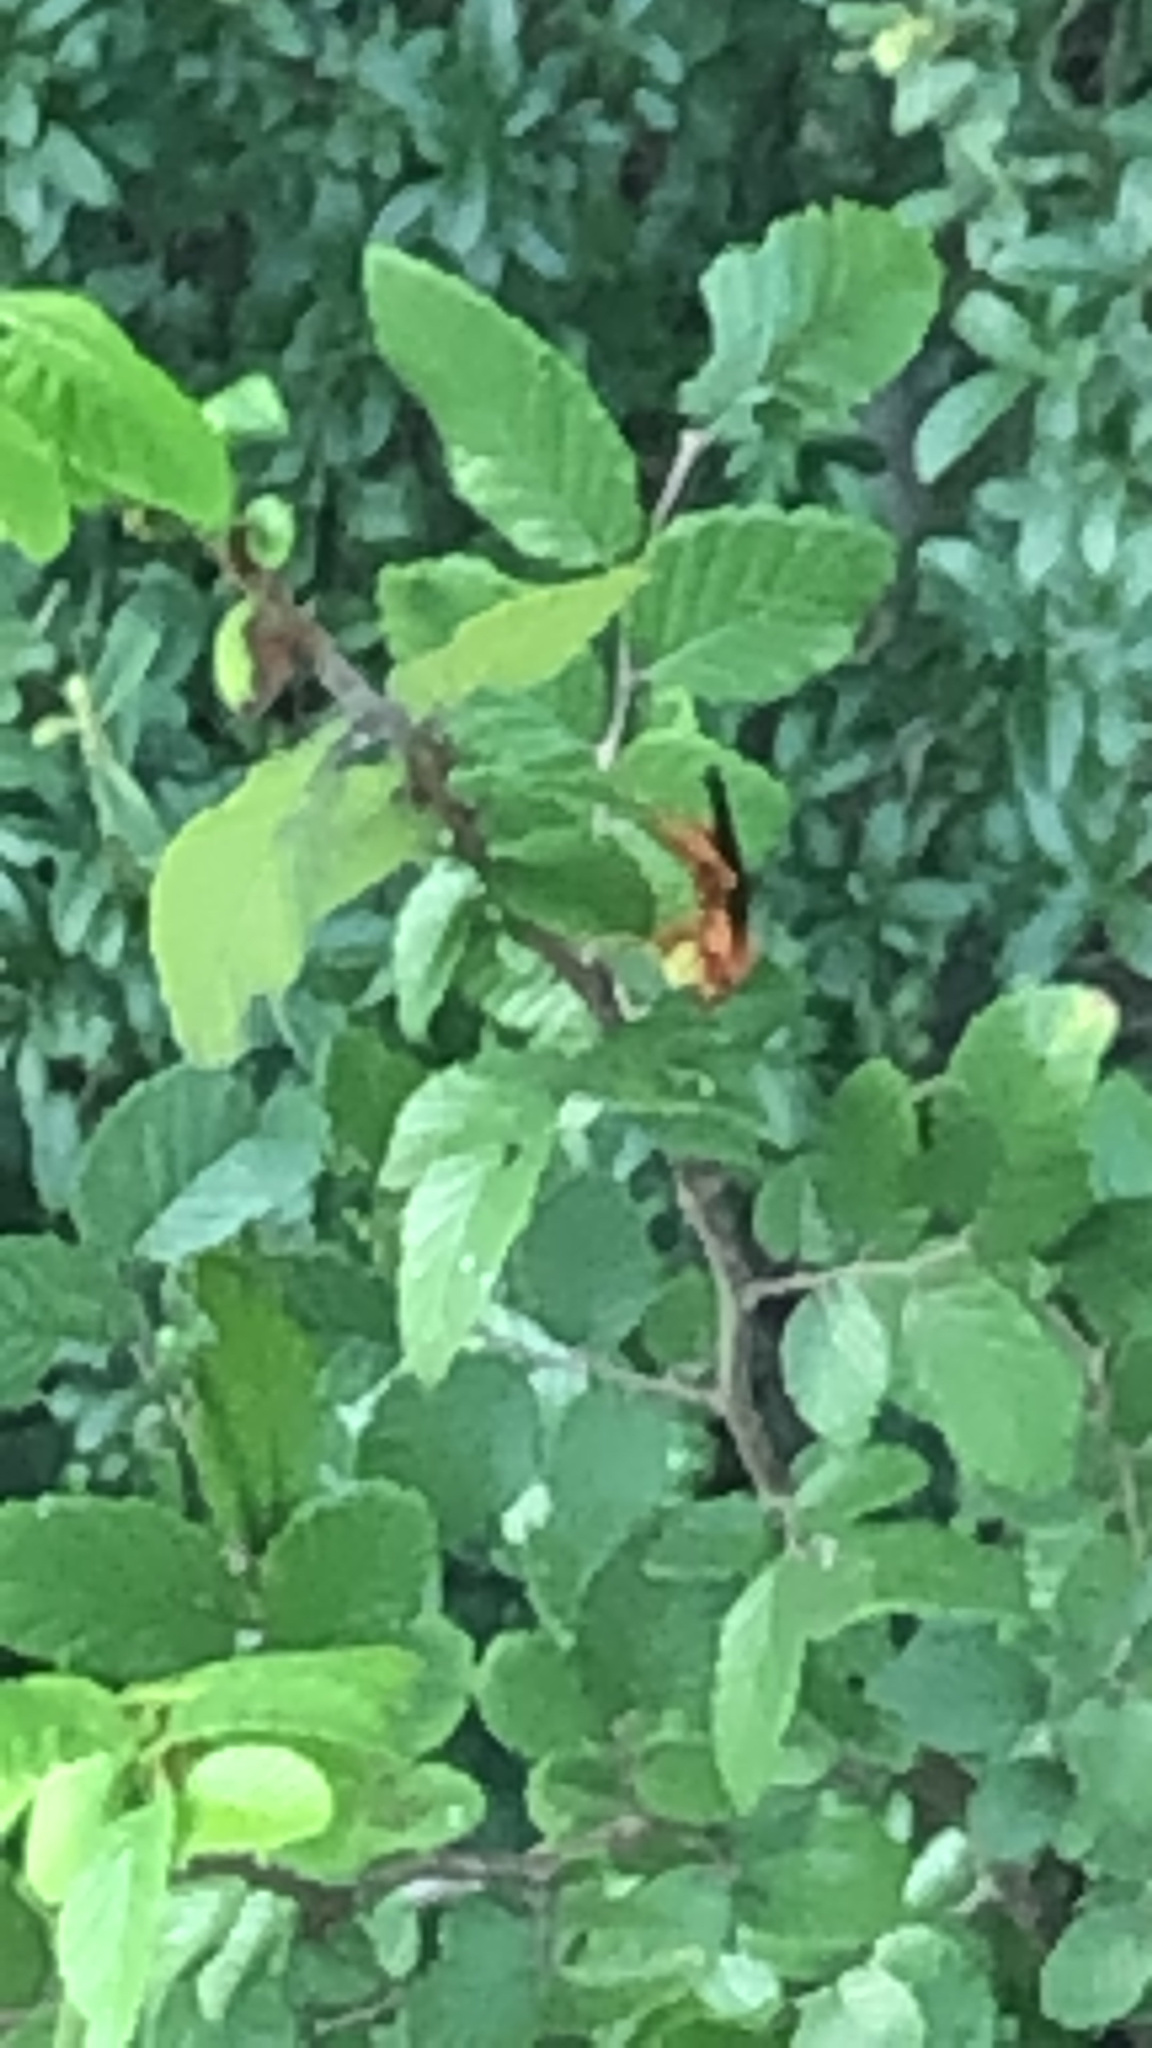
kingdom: Animalia
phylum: Arthropoda
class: Insecta
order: Hymenoptera
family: Vespidae
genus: Fuscopolistes
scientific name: Fuscopolistes
